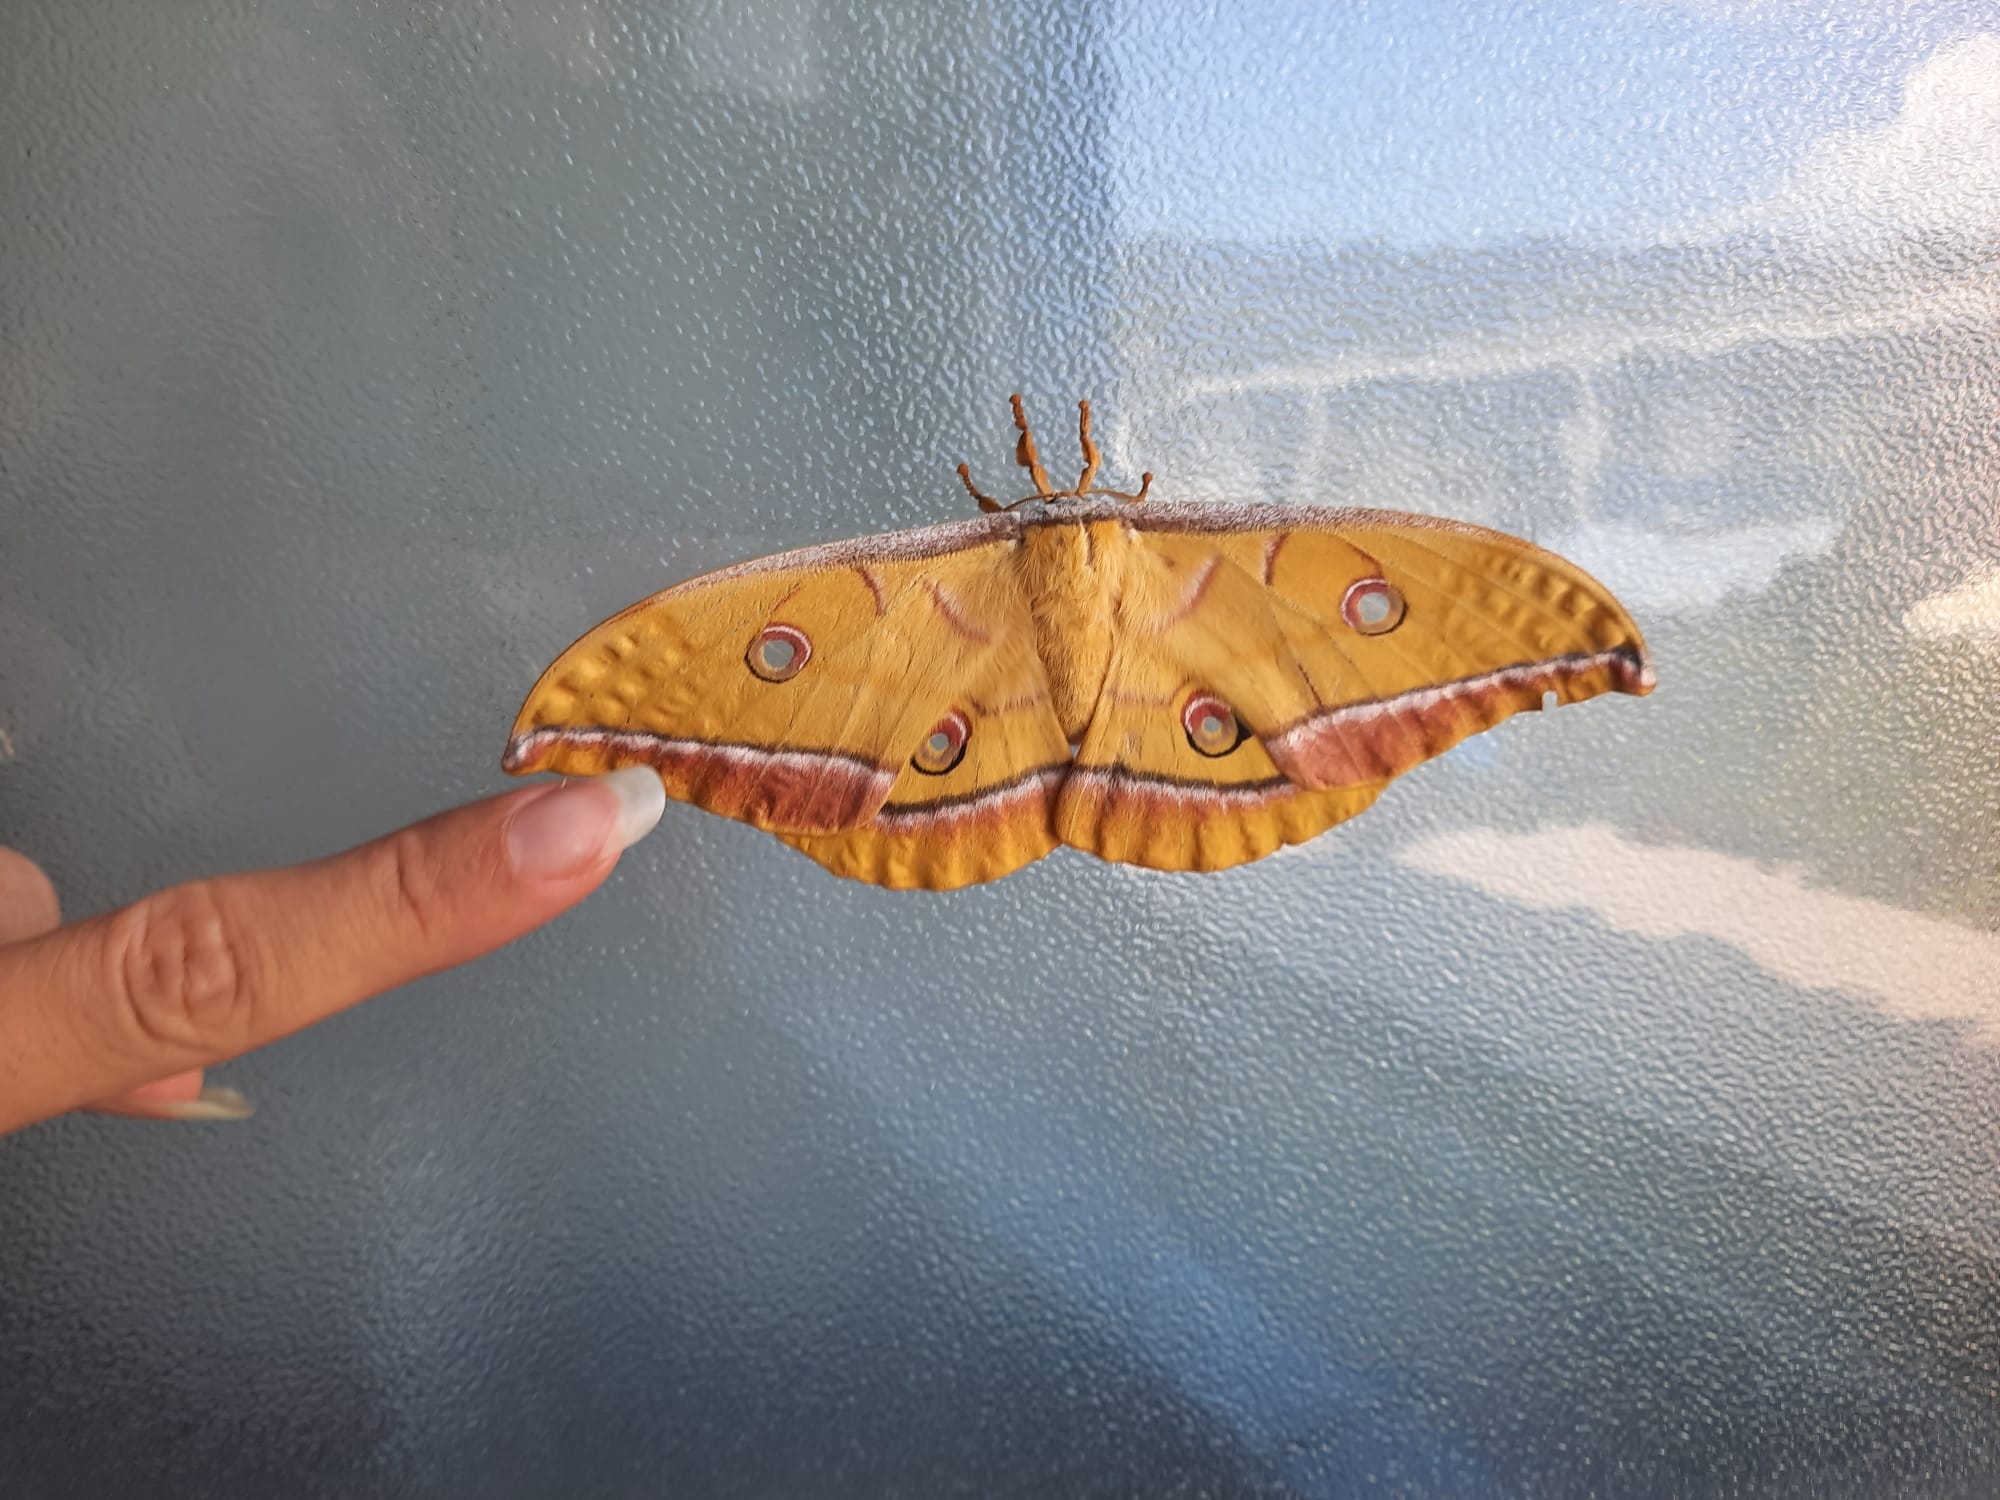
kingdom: Animalia
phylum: Arthropoda
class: Insecta
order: Lepidoptera
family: Saturniidae
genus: Antheraea
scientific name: Antheraea yamamai
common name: Japanese oak silk moth
